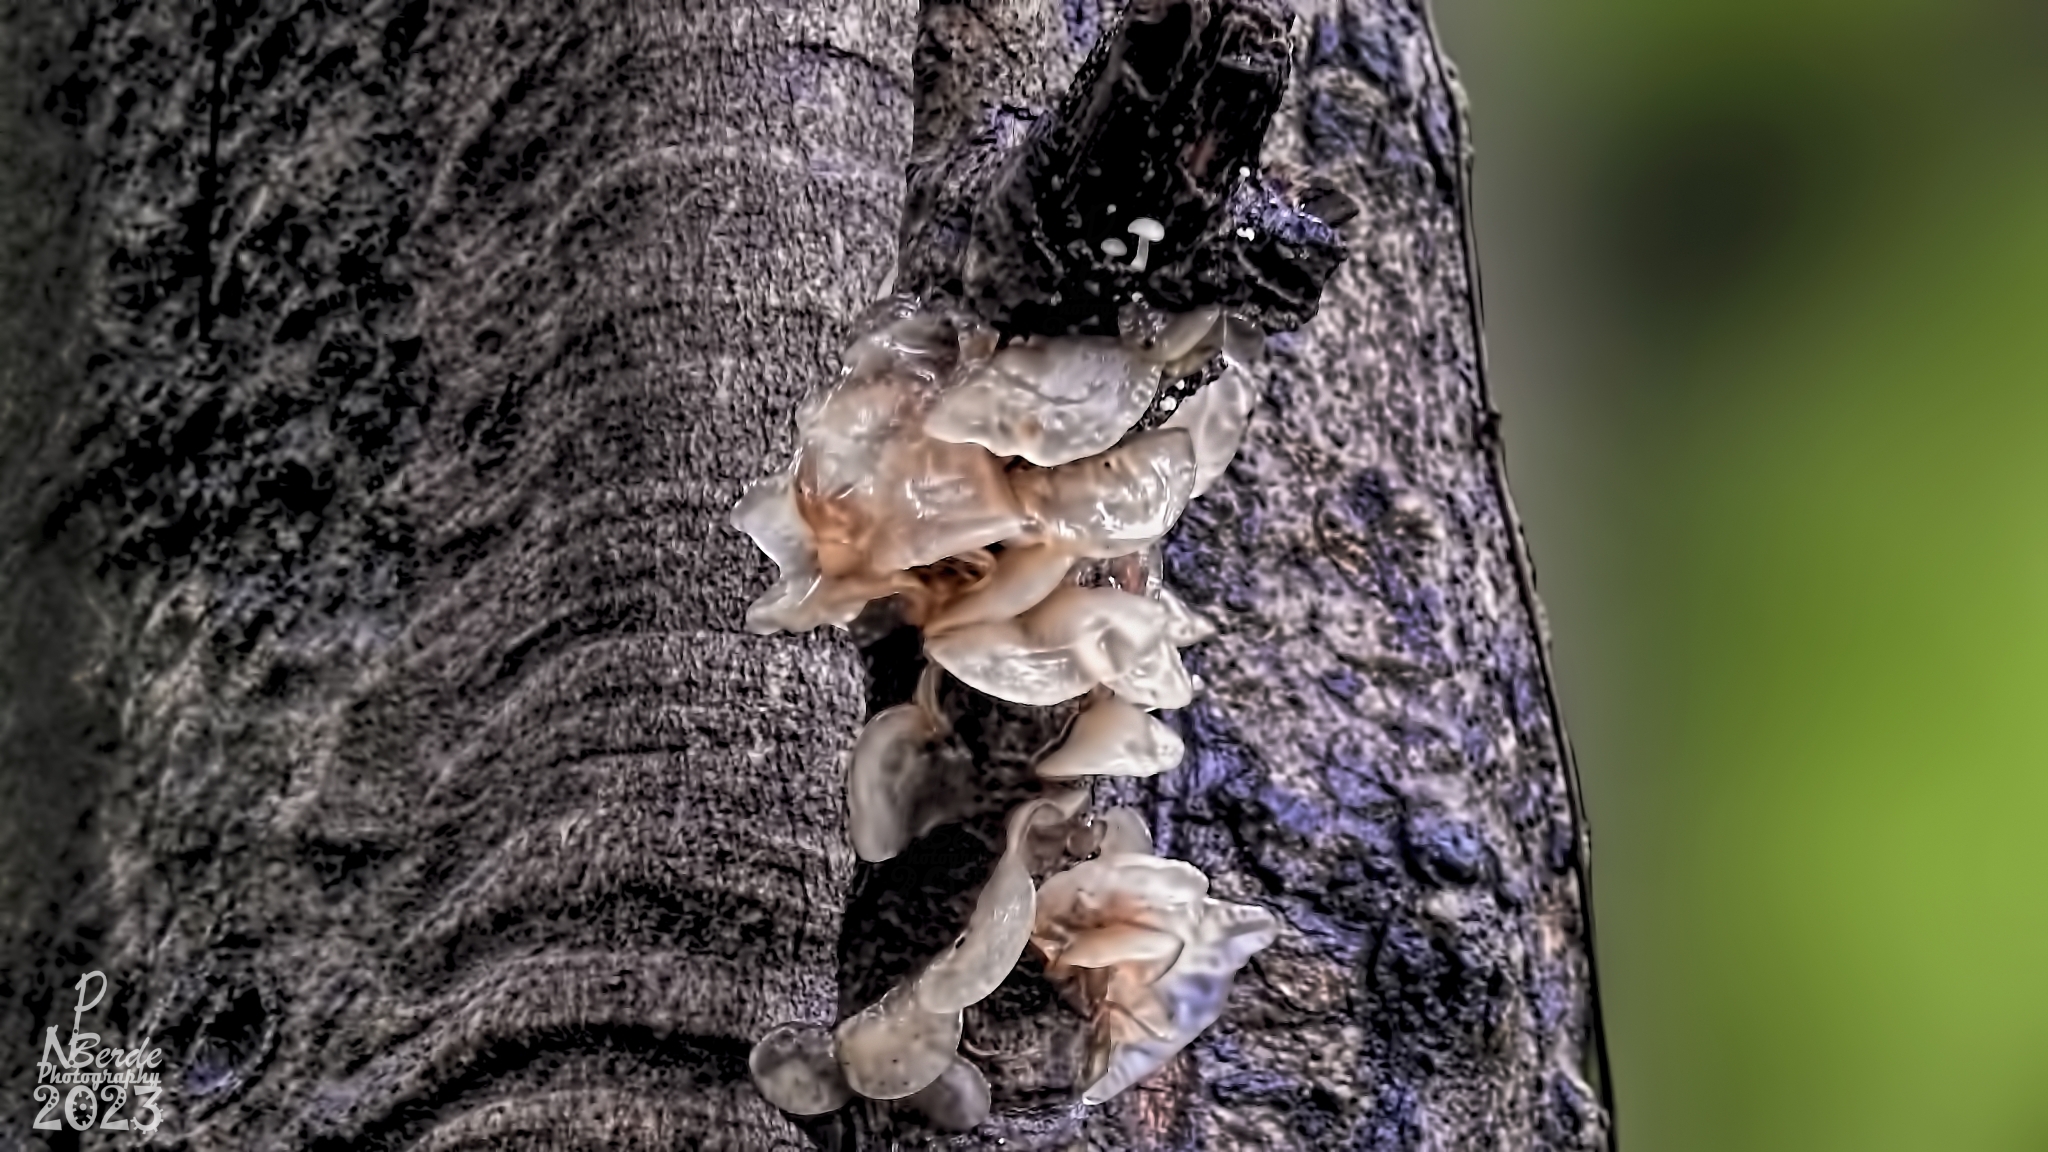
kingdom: Fungi
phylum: Basidiomycota
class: Tremellomycetes
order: Tremellales
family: Tremellaceae
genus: Phaeotremella
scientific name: Phaeotremella foliacea
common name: Leafy brain
